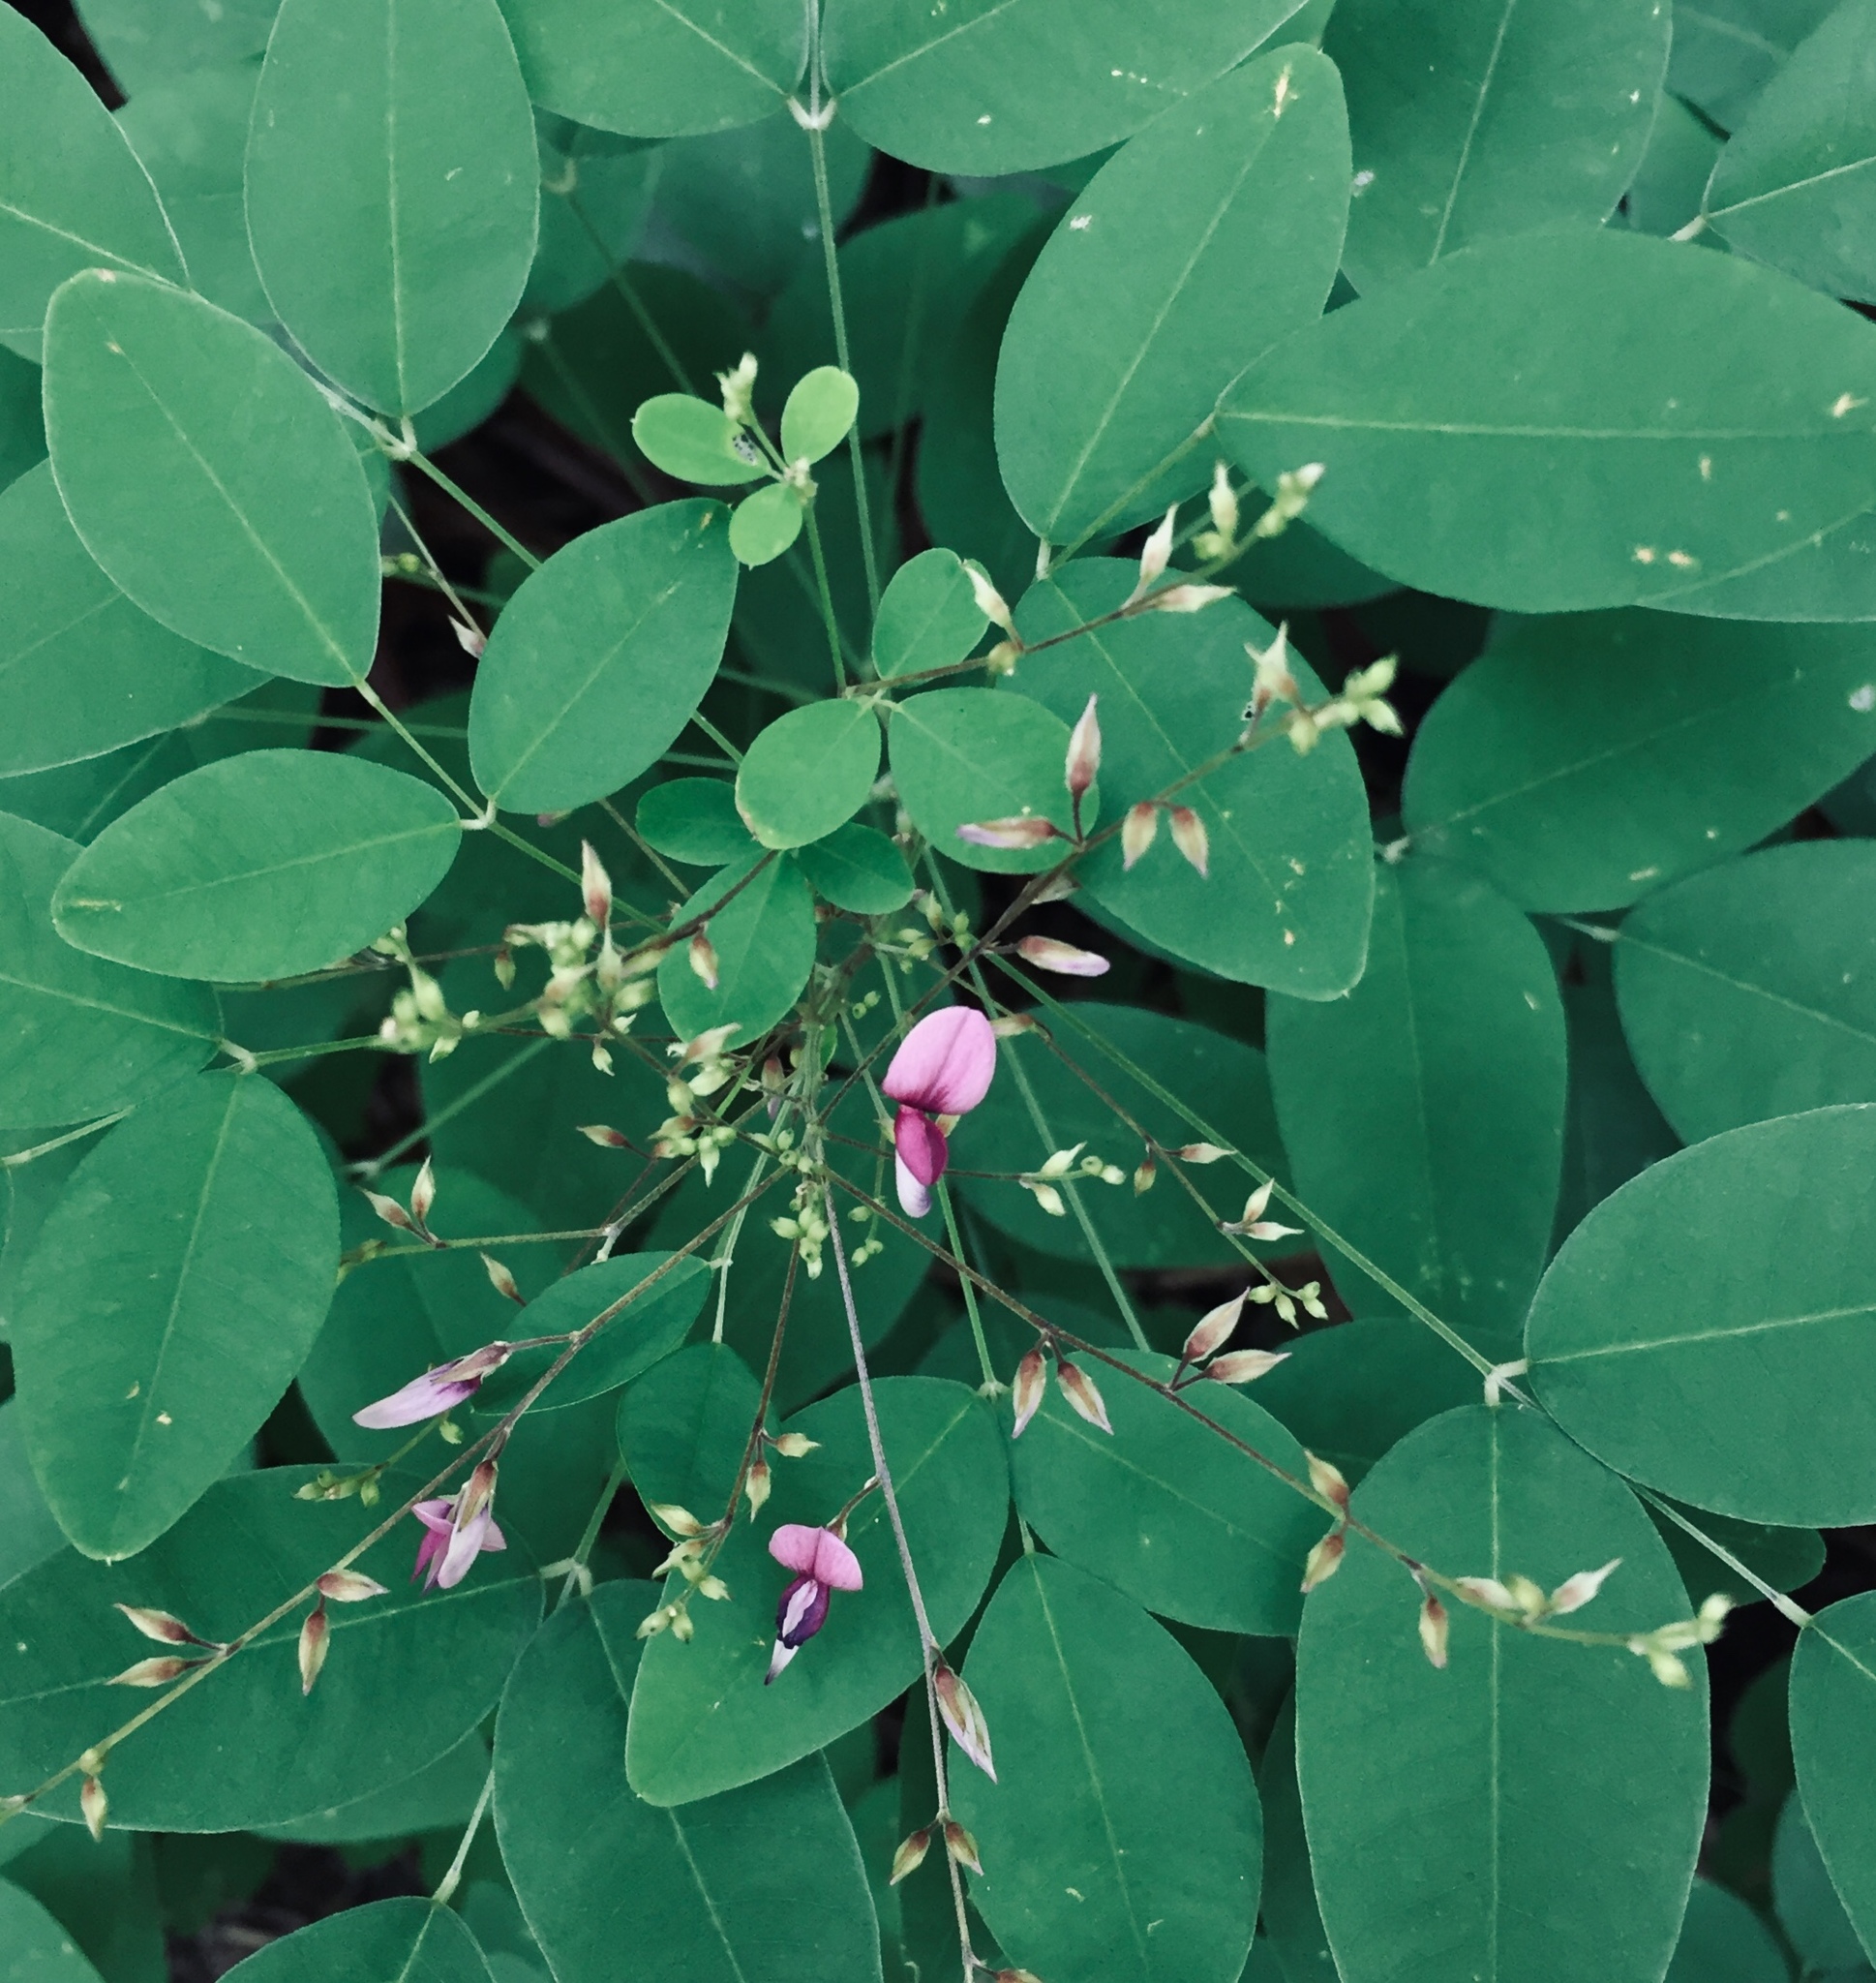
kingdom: Plantae
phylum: Tracheophyta
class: Magnoliopsida
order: Fabales
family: Fabaceae
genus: Lespedeza
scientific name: Lespedeza bicolor
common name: Shrub lespedeza
